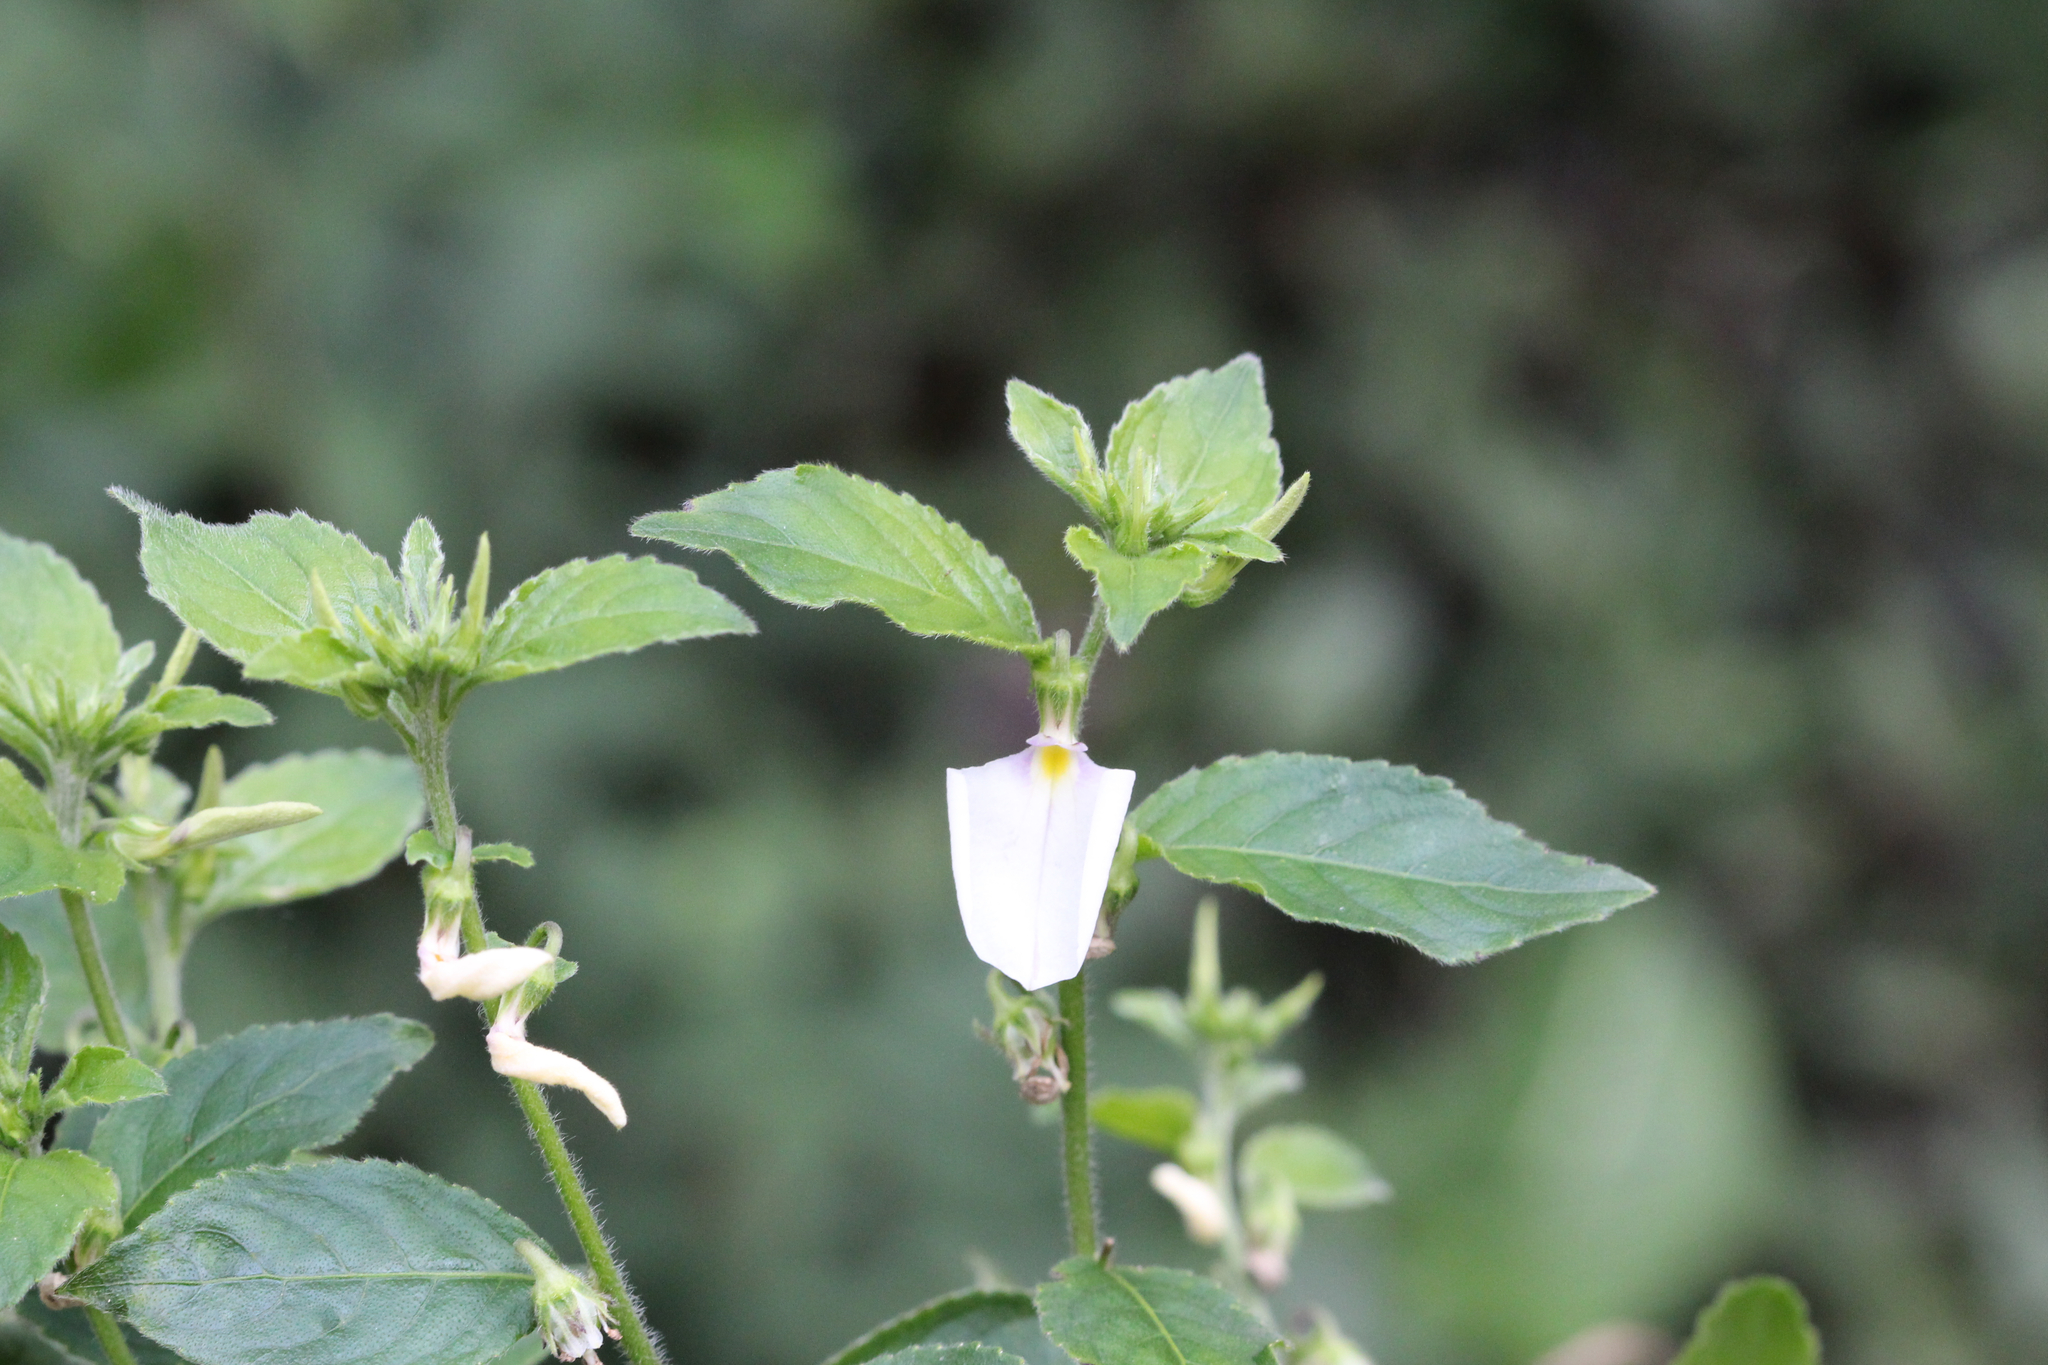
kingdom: Plantae
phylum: Tracheophyta
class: Magnoliopsida
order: Malpighiales
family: Violaceae
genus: Pombalia
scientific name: Pombalia communis
